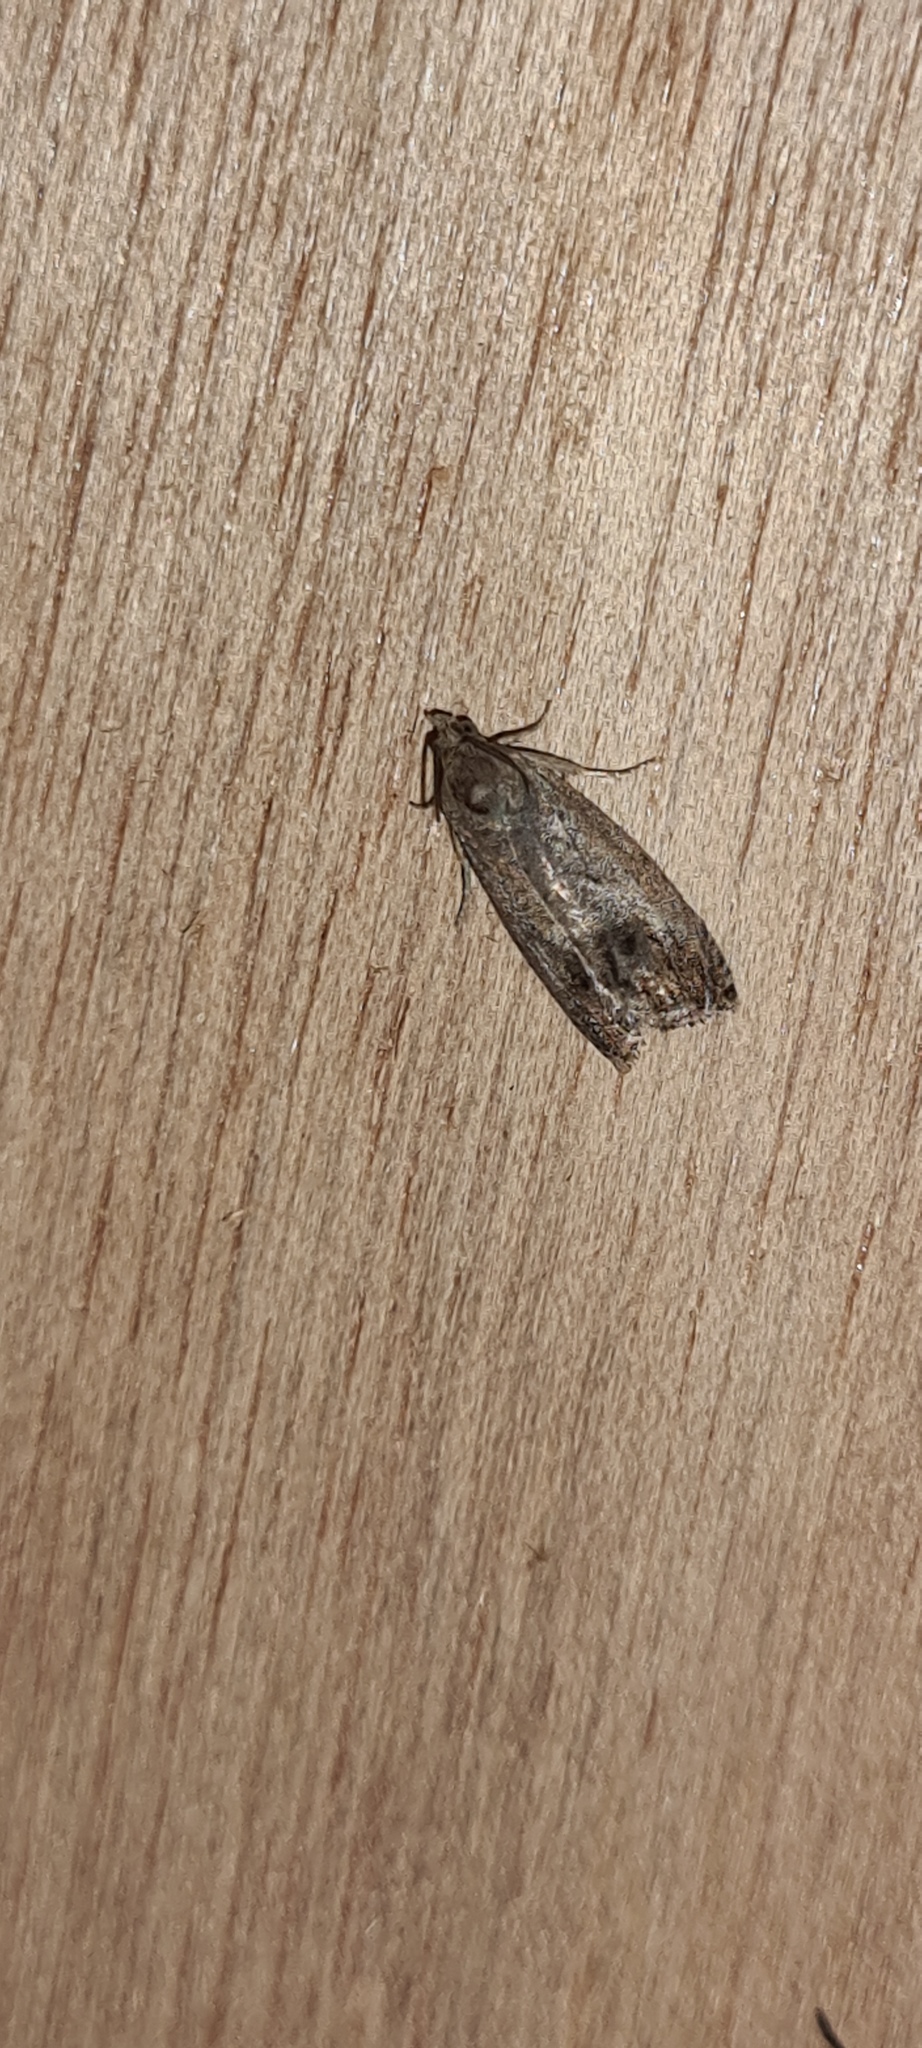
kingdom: Animalia
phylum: Arthropoda
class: Insecta
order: Lepidoptera
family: Tortricidae
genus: Cydia
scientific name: Cydia pomonella
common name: Codling moth
